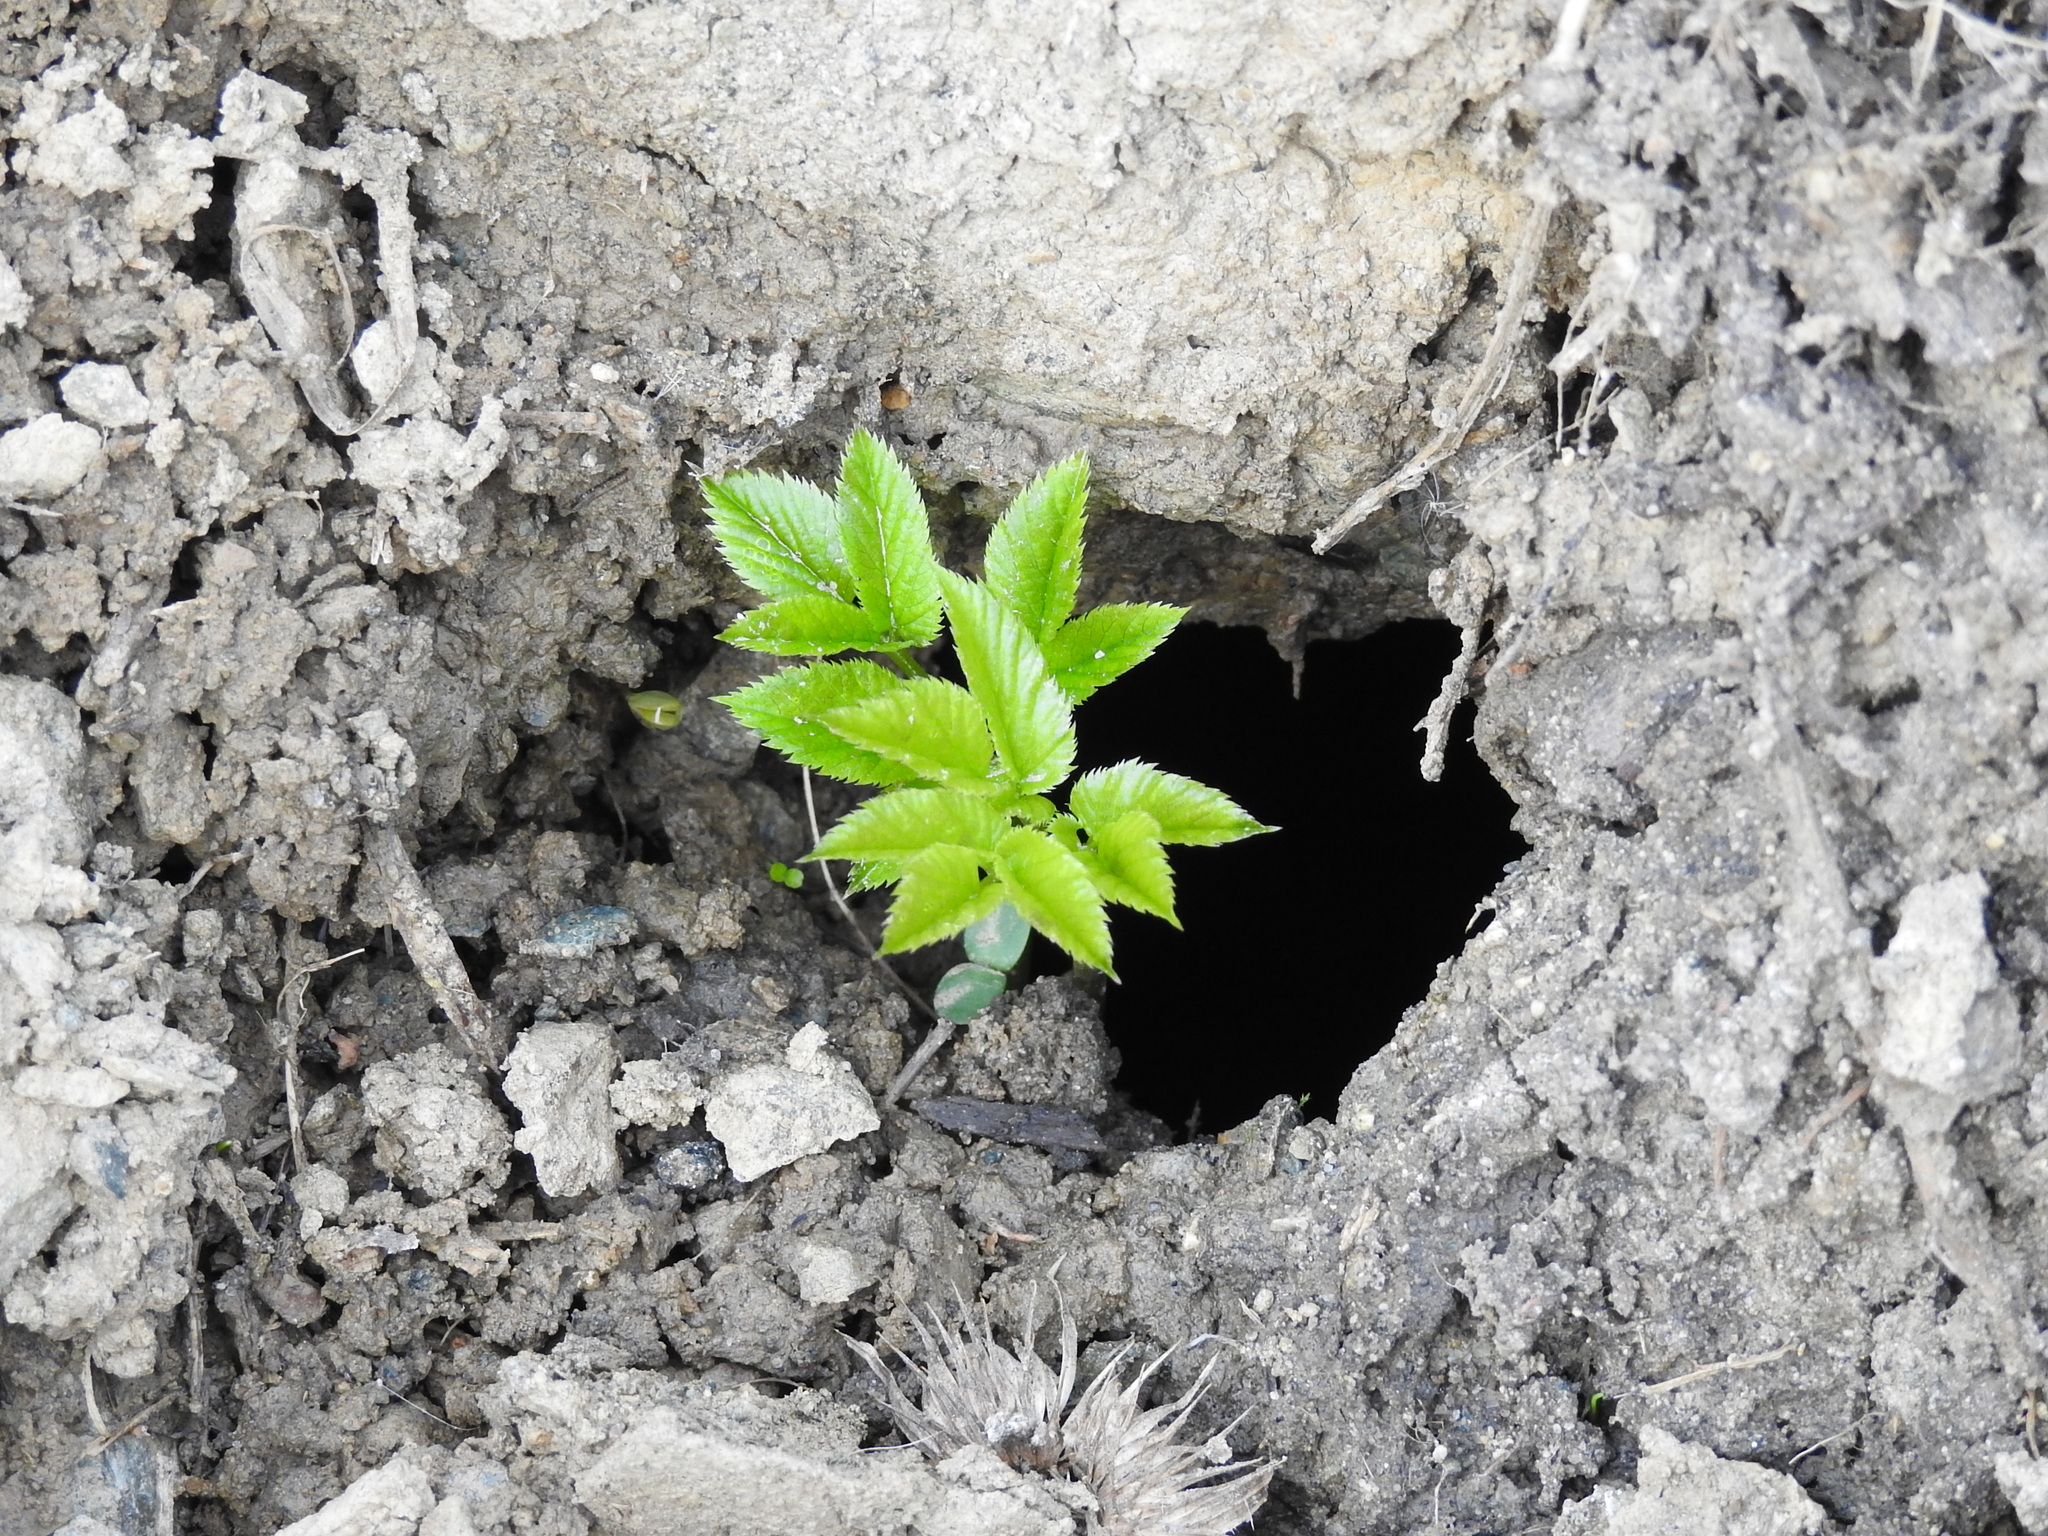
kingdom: Plantae
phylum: Tracheophyta
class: Magnoliopsida
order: Apiales
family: Apiaceae
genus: Aegopodium
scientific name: Aegopodium podagraria
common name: Ground-elder
